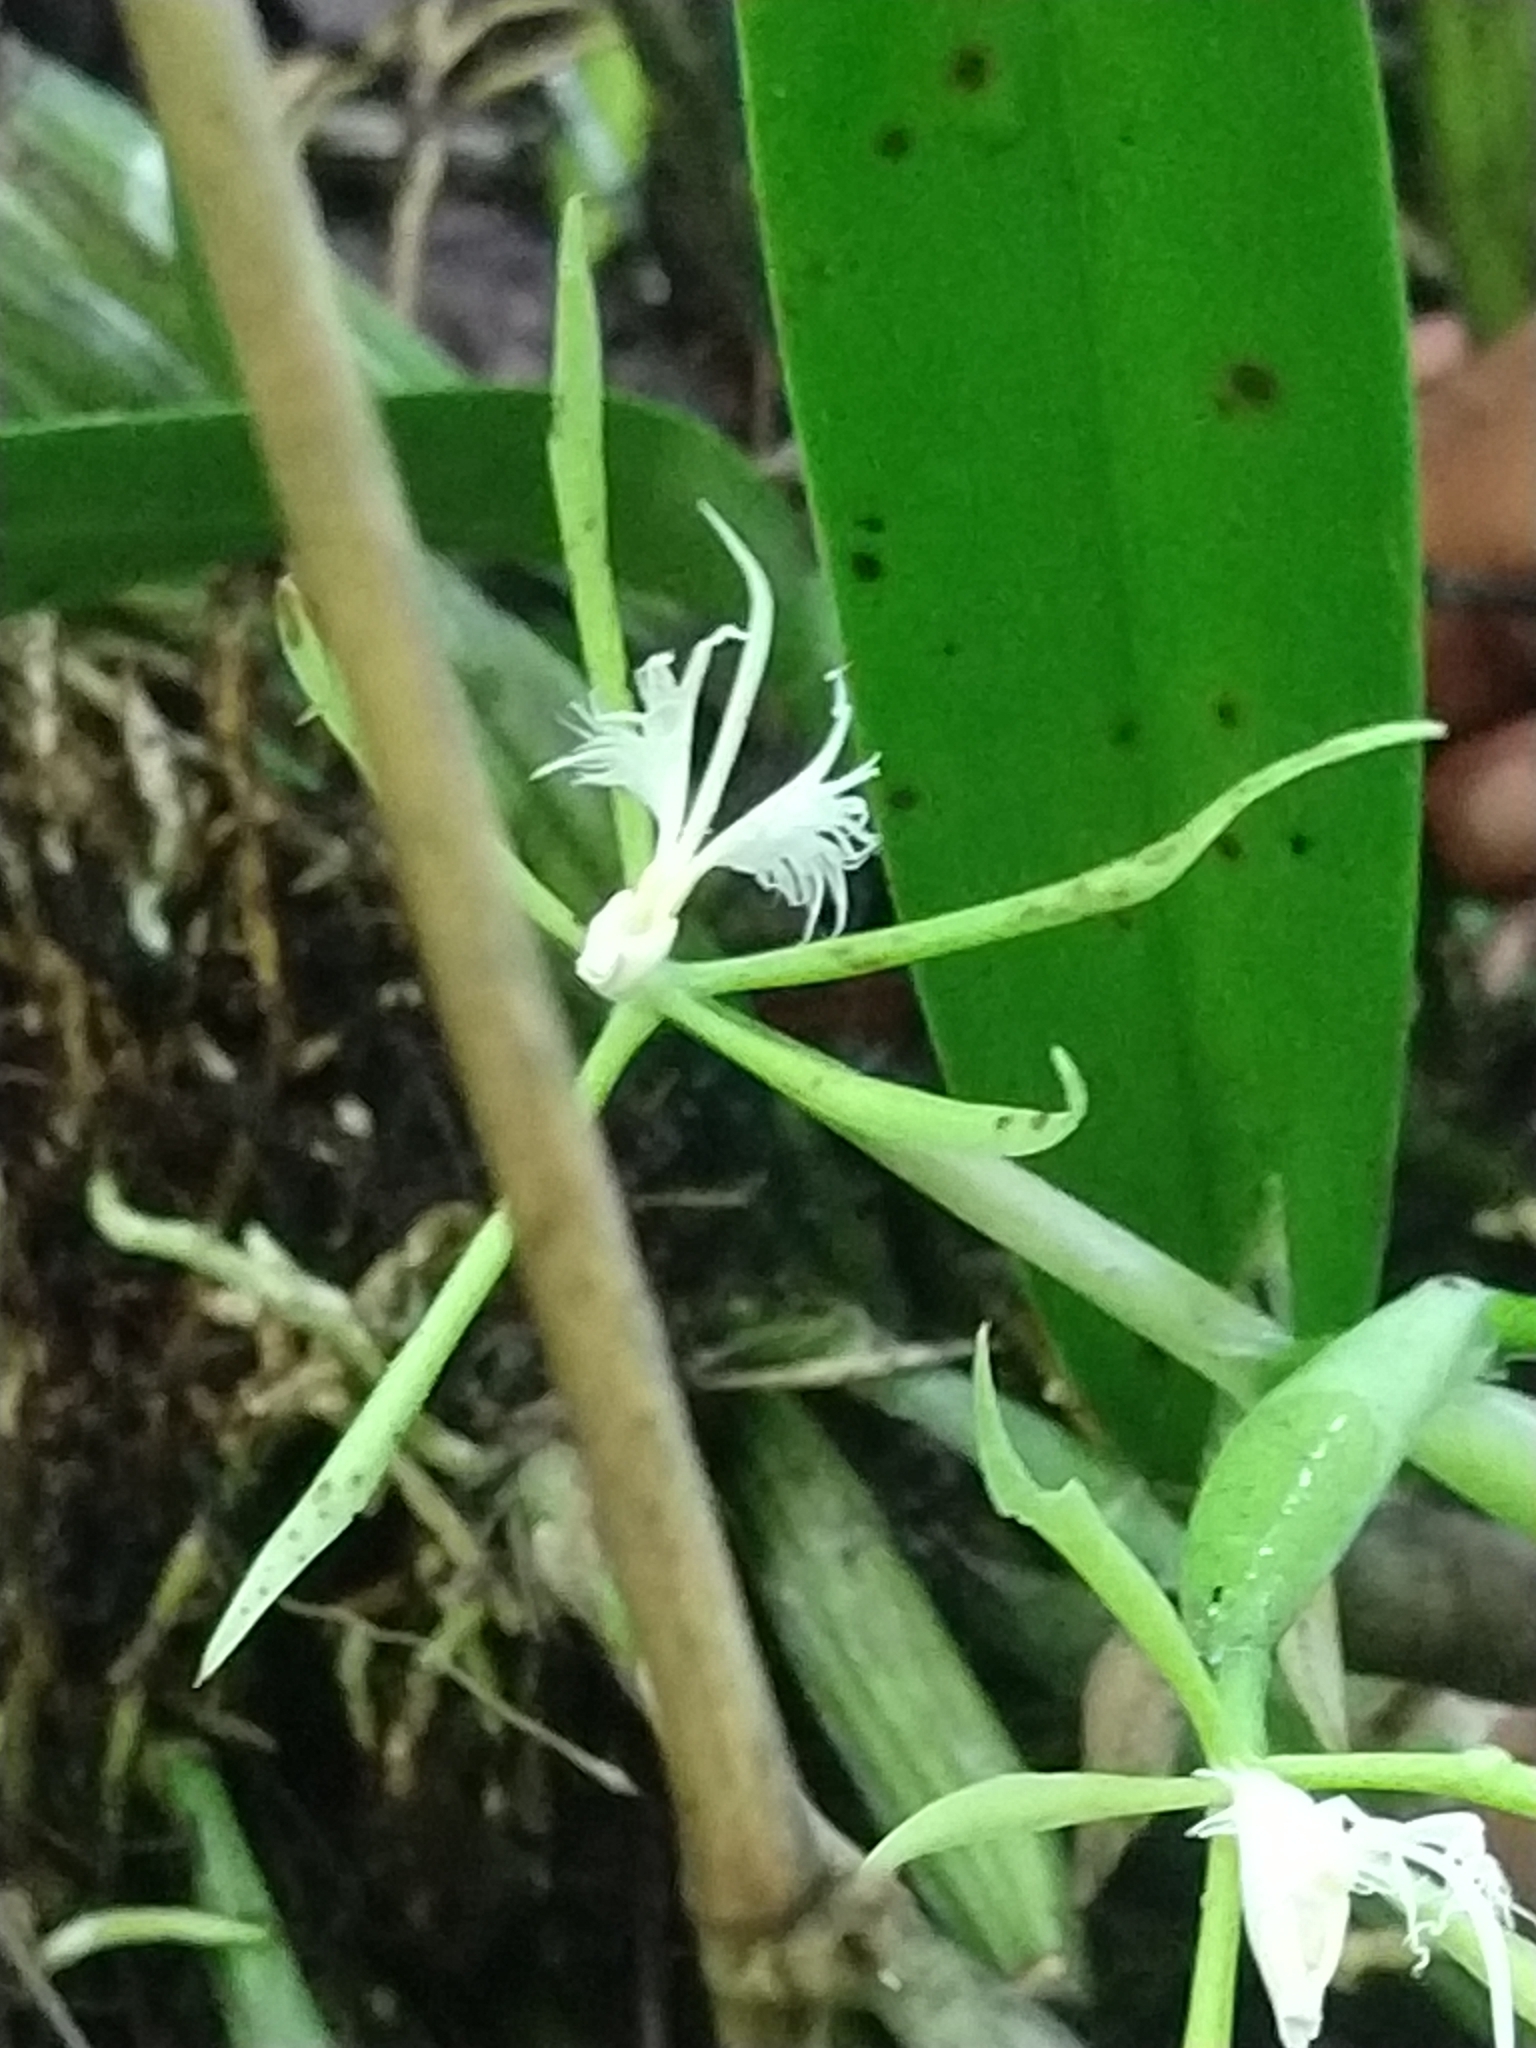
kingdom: Plantae
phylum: Tracheophyta
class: Liliopsida
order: Asparagales
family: Orchidaceae
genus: Epidendrum
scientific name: Epidendrum ciliare
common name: Eyelash orchid
